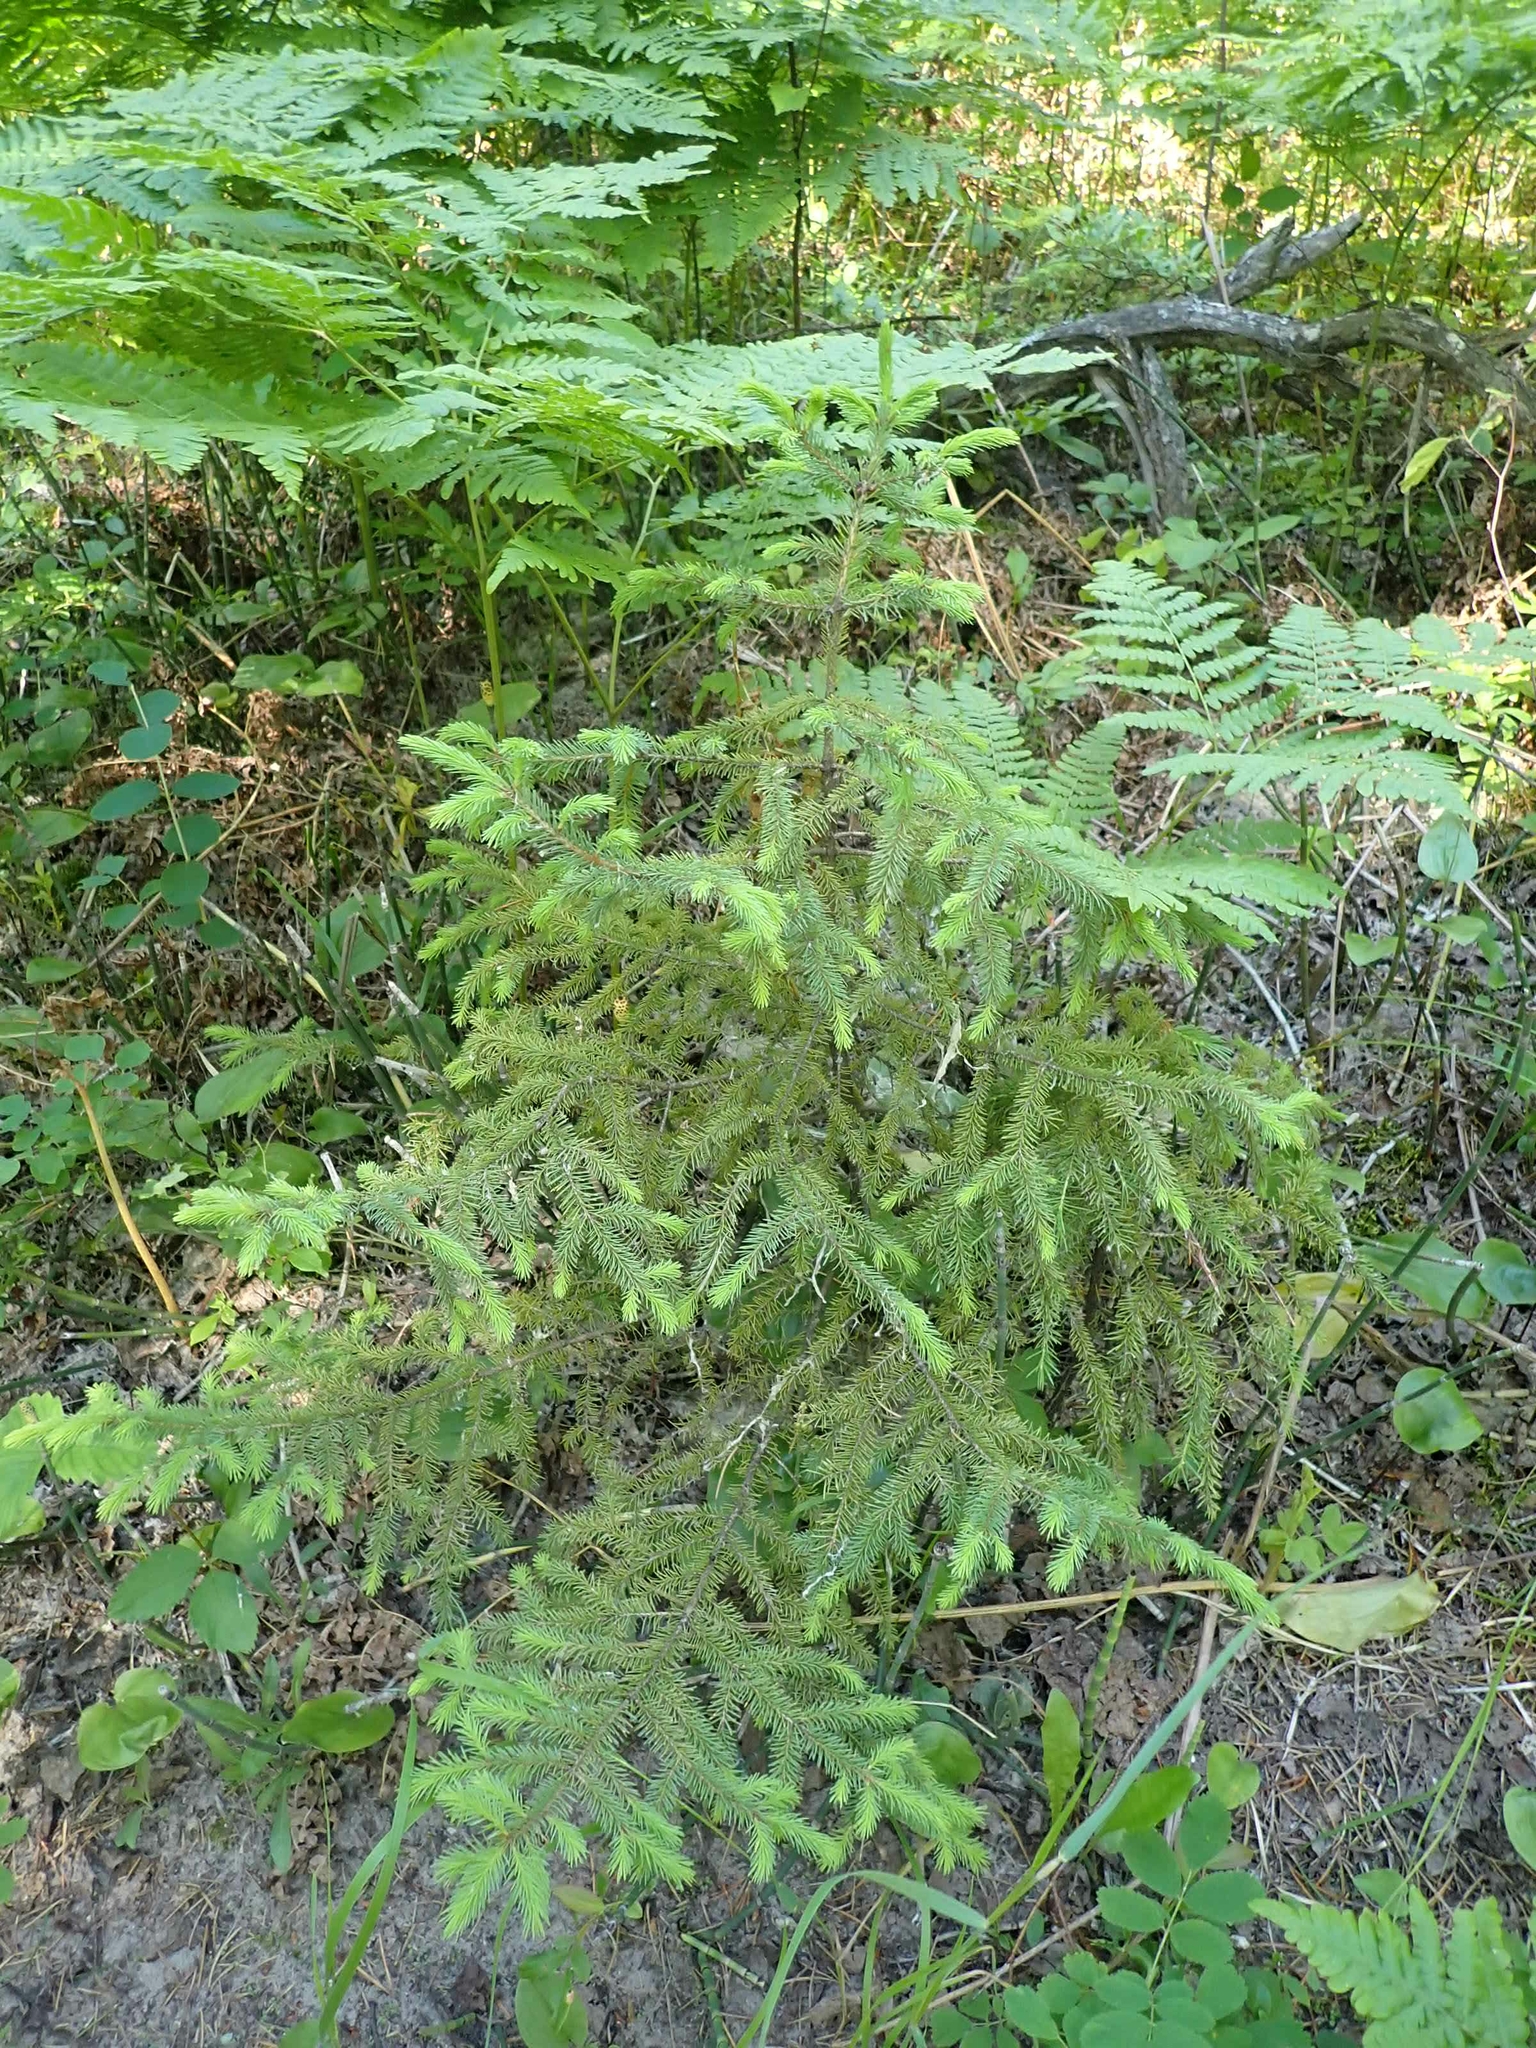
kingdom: Plantae
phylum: Tracheophyta
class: Pinopsida
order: Pinales
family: Pinaceae
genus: Picea
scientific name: Picea glauca
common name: White spruce
